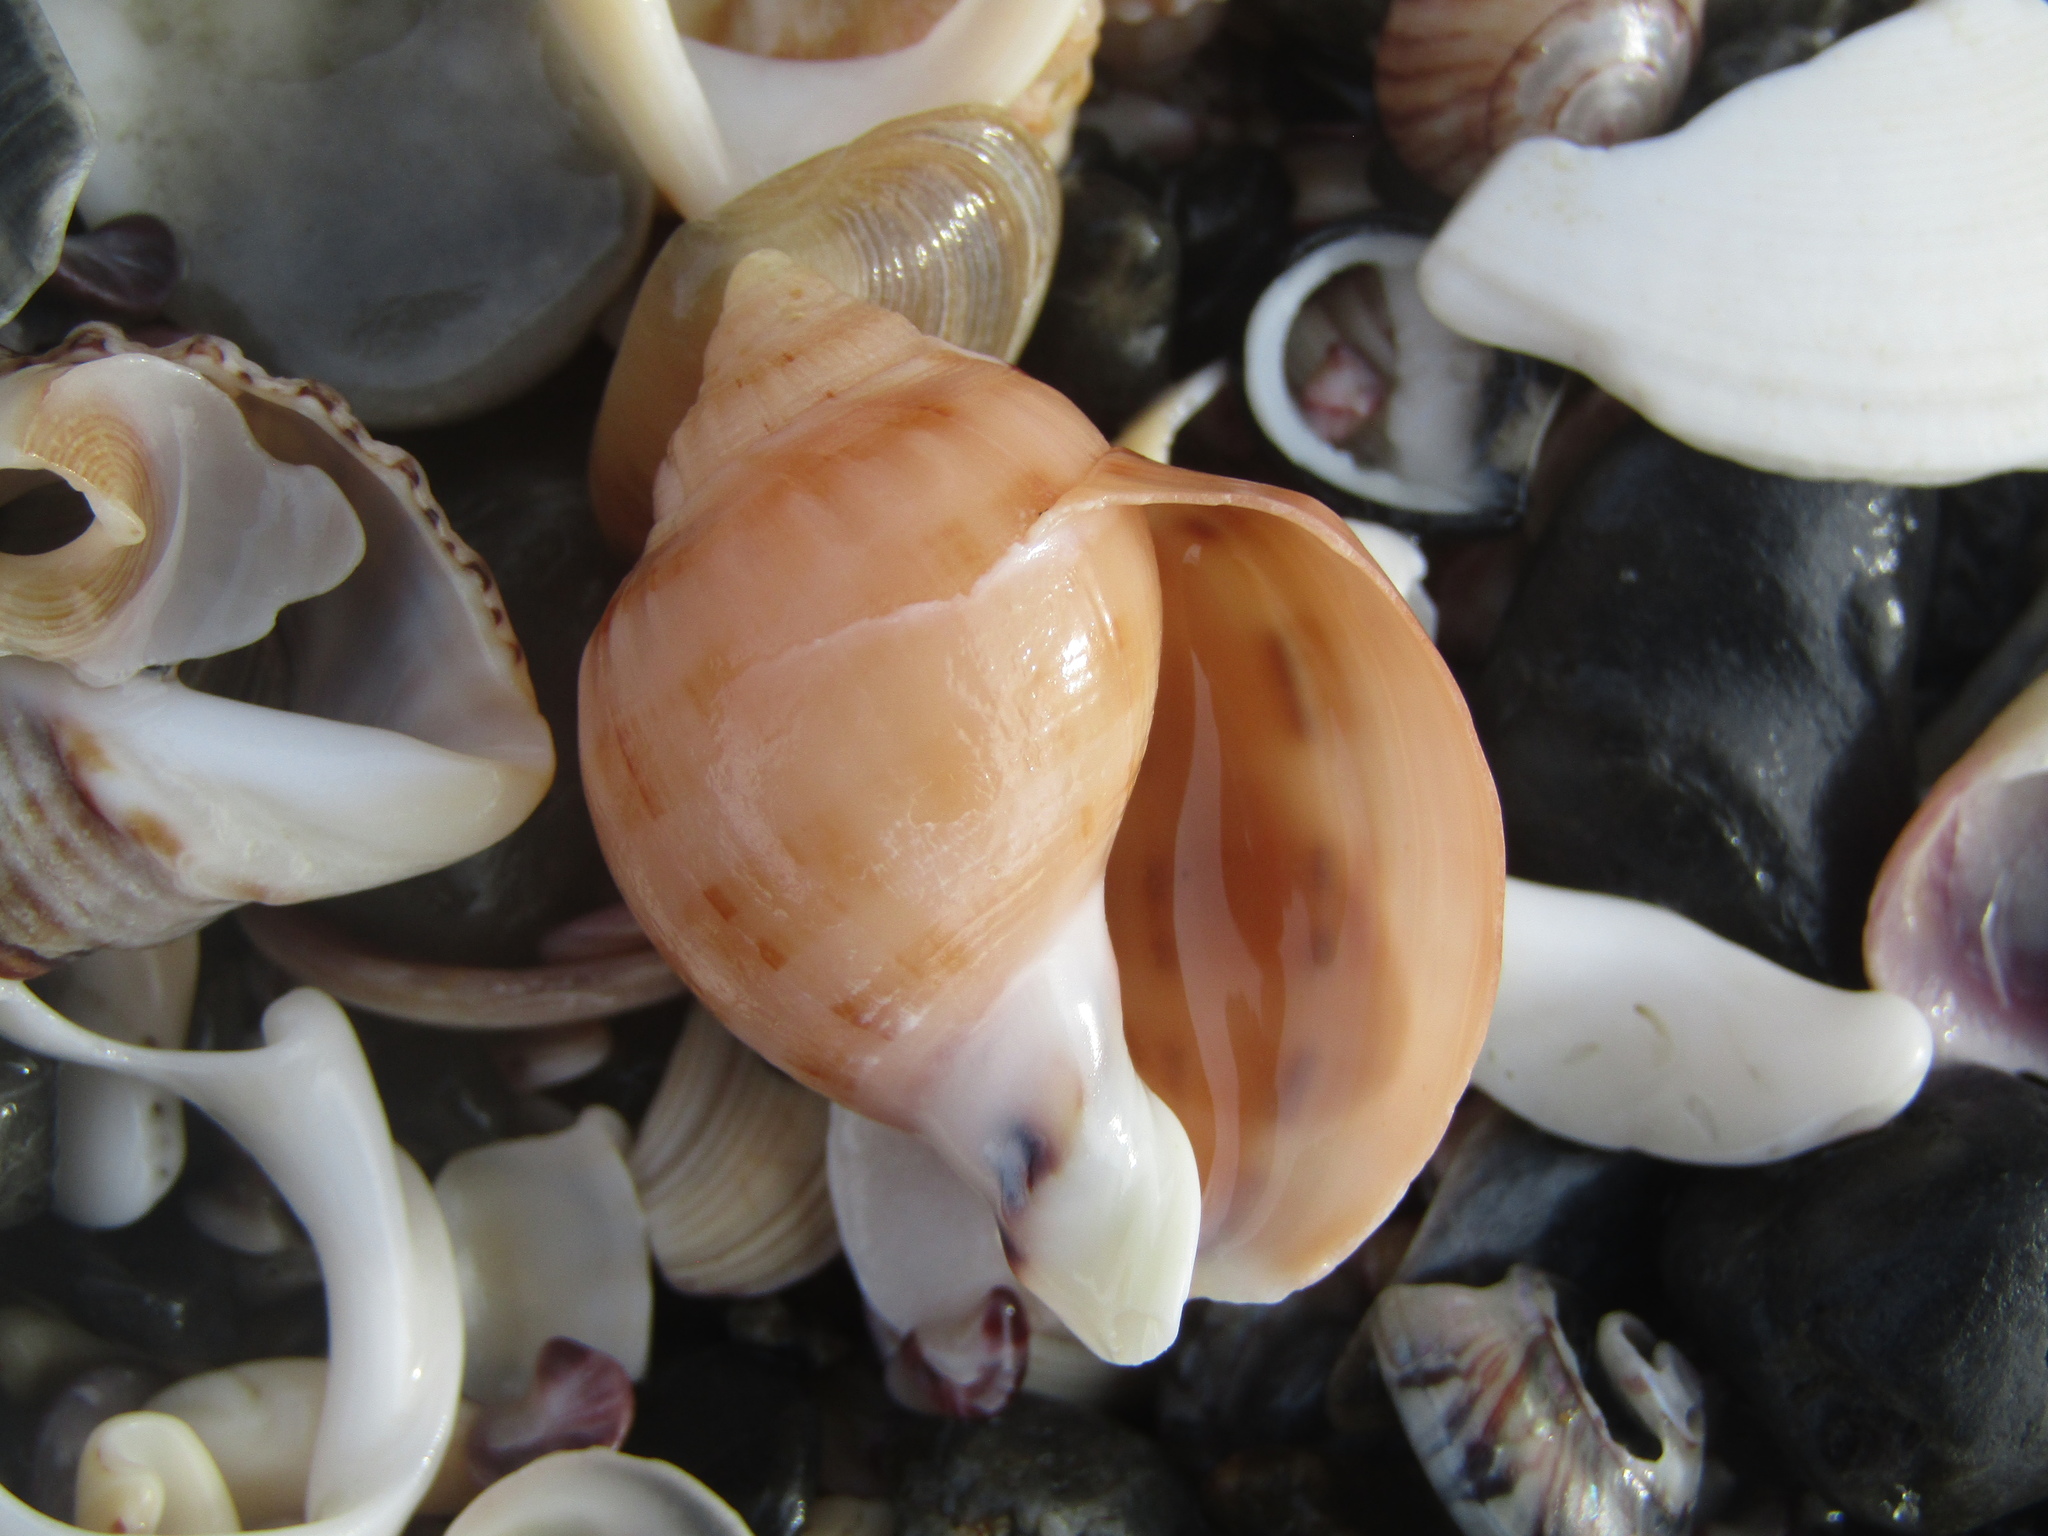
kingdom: Animalia
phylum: Mollusca
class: Gastropoda
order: Littorinimorpha
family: Cassidae
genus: Semicassis
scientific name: Semicassis pyrum
